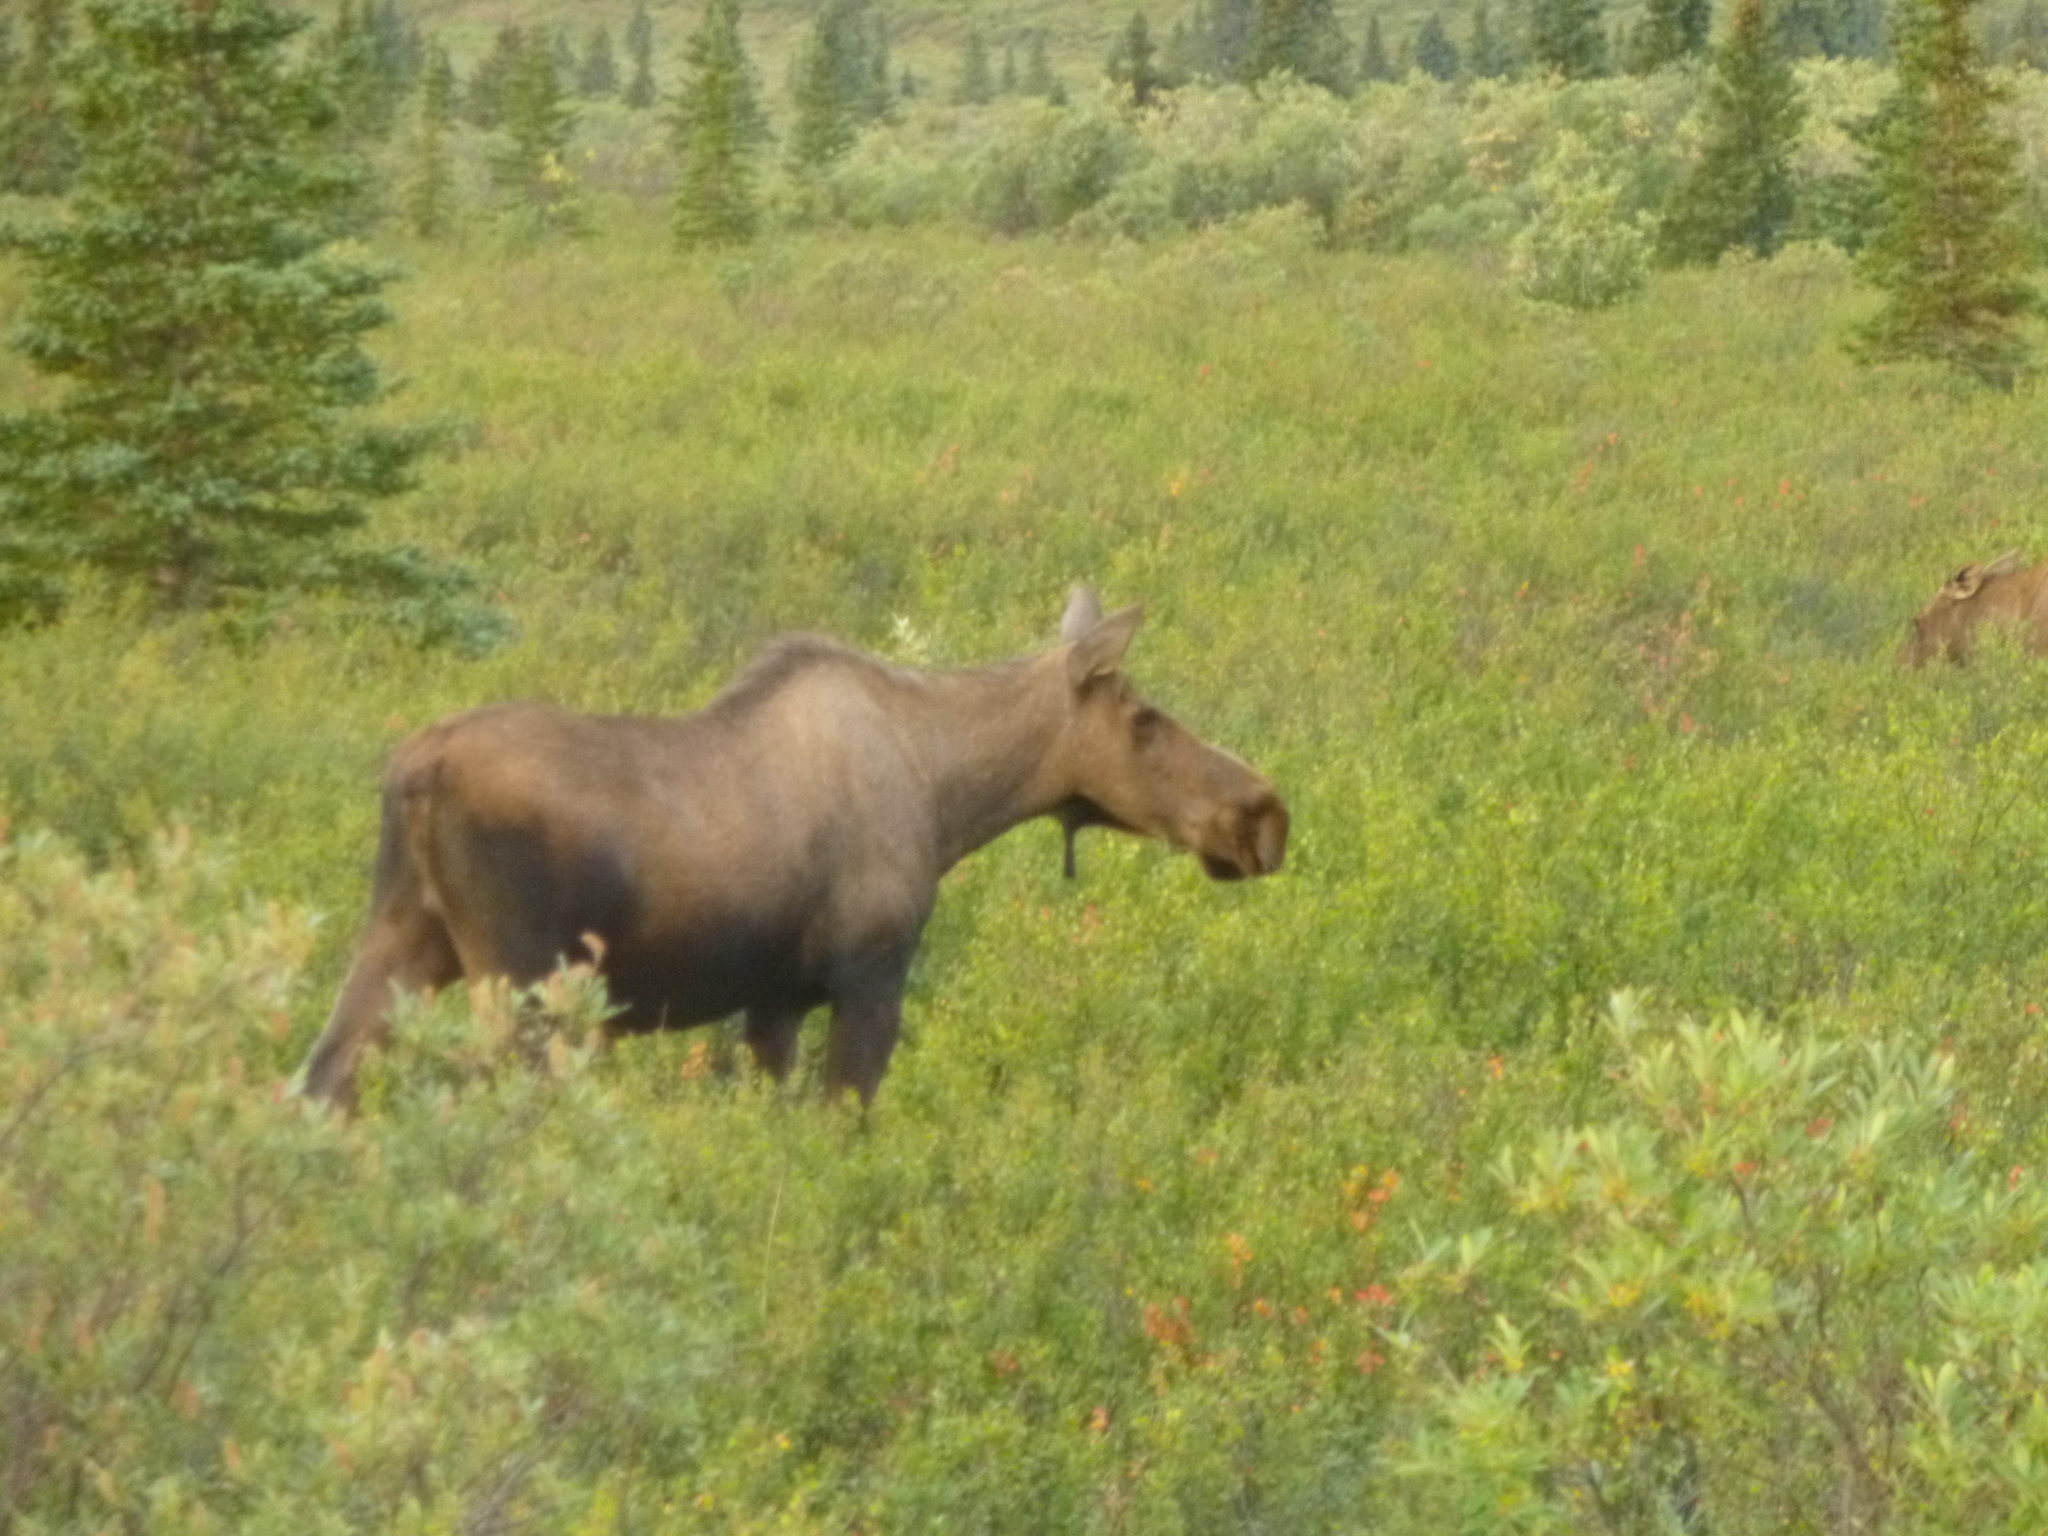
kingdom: Animalia
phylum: Chordata
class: Mammalia
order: Artiodactyla
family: Cervidae
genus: Alces
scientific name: Alces alces
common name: Moose
